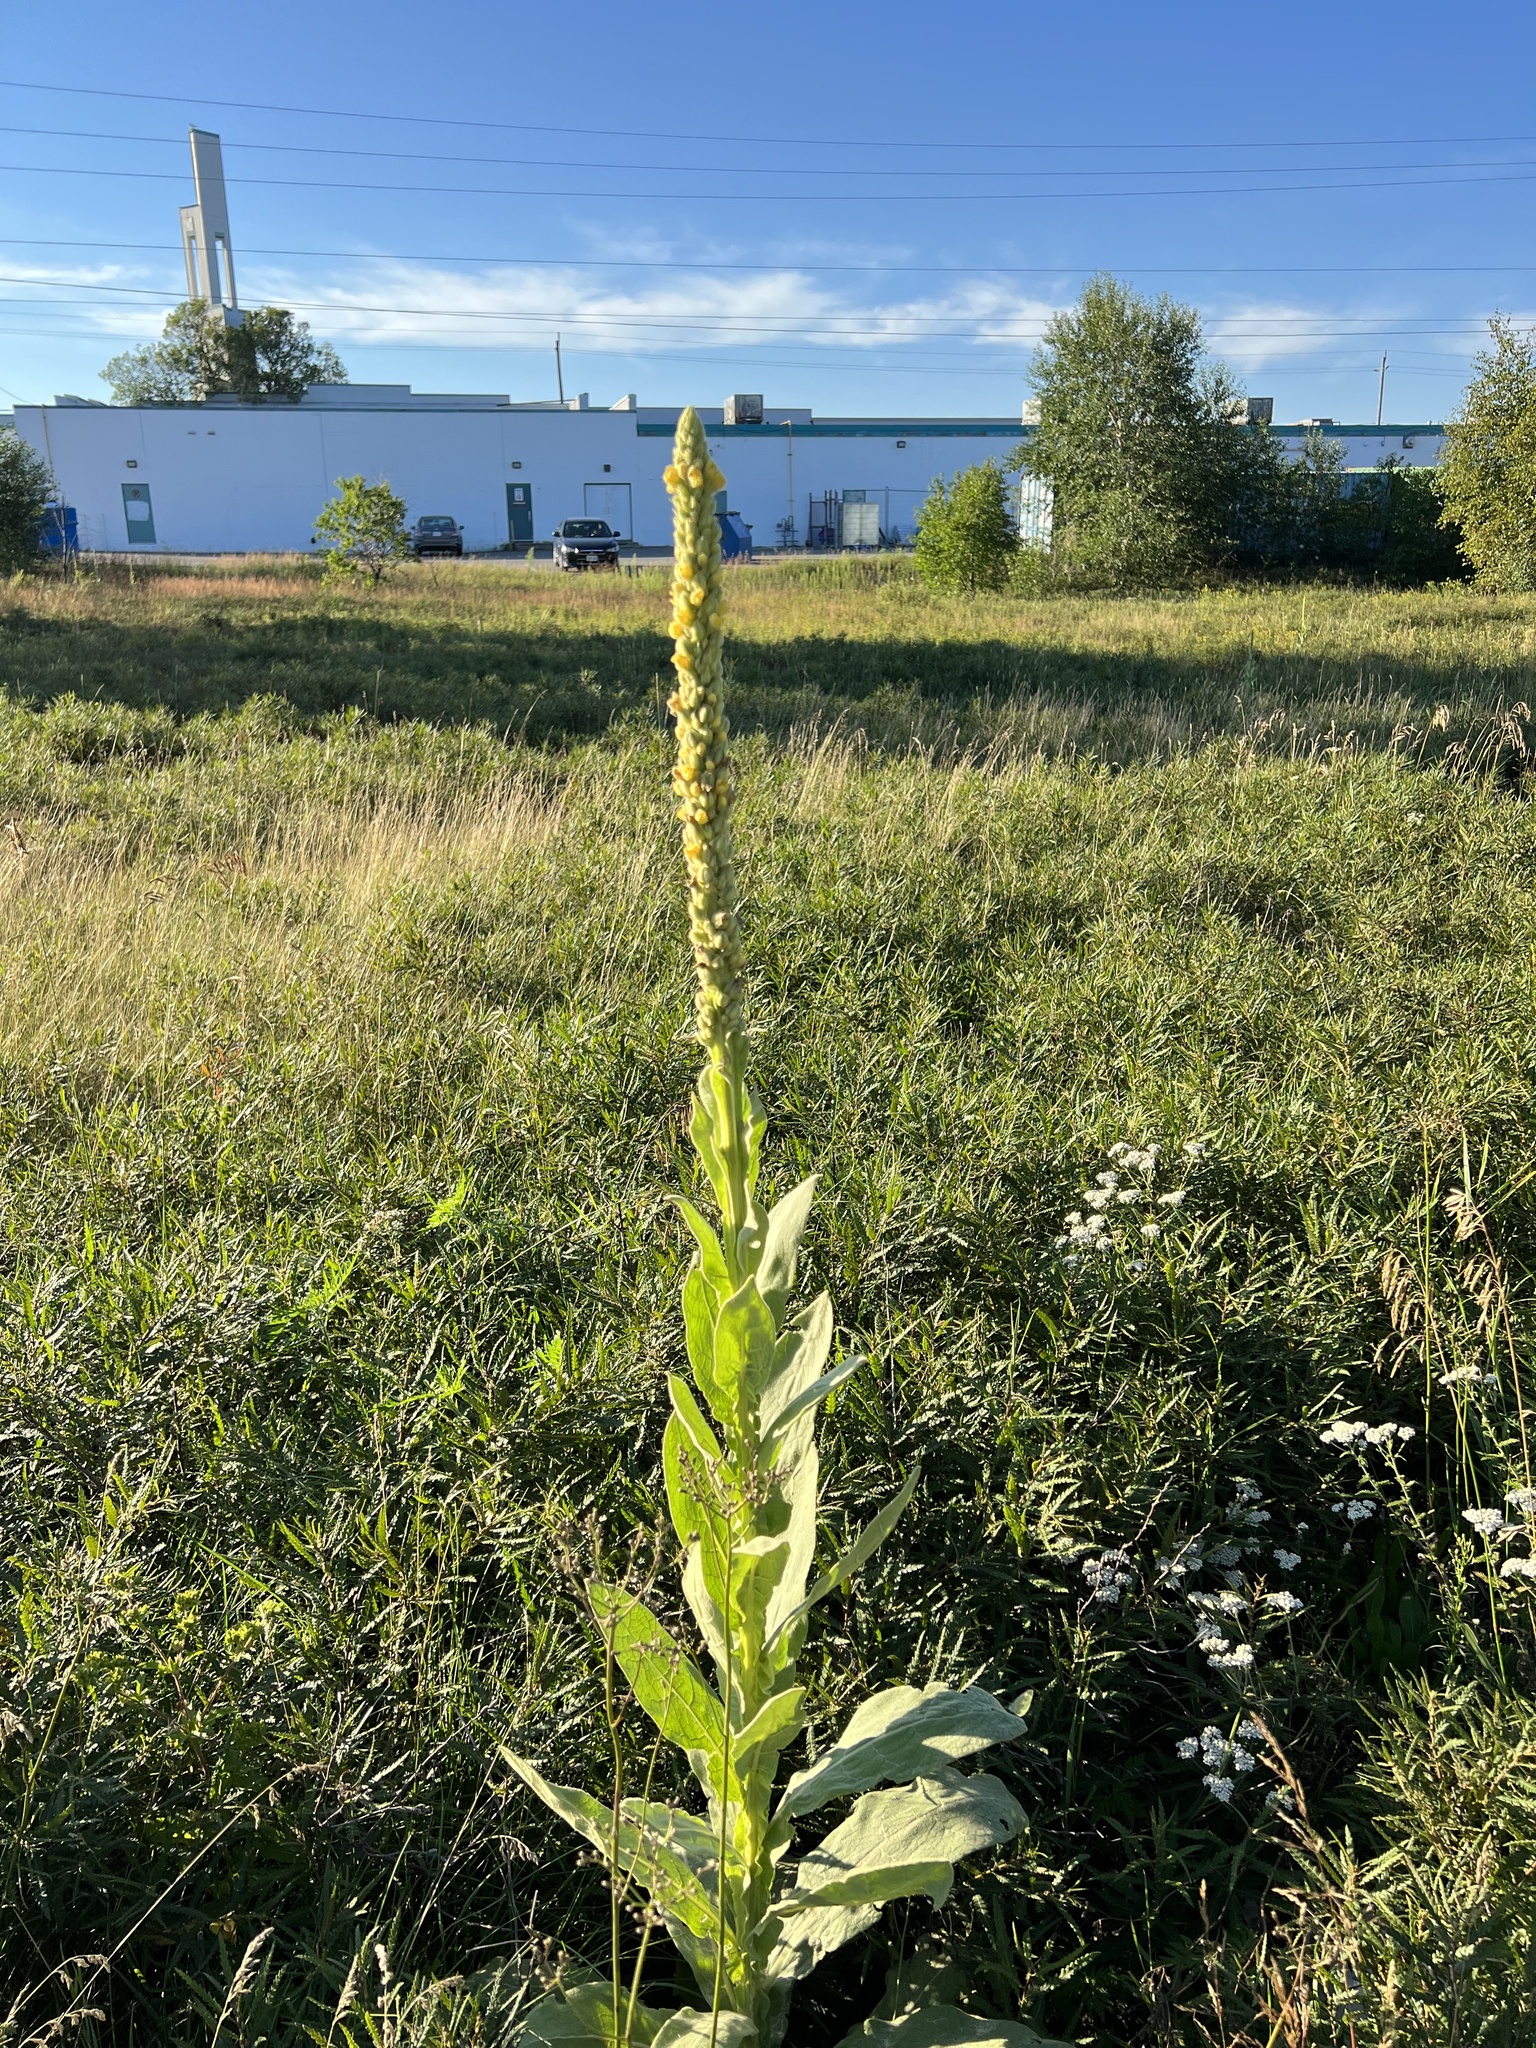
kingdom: Plantae
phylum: Tracheophyta
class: Magnoliopsida
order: Lamiales
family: Scrophulariaceae
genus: Verbascum
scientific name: Verbascum thapsus
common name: Common mullein
